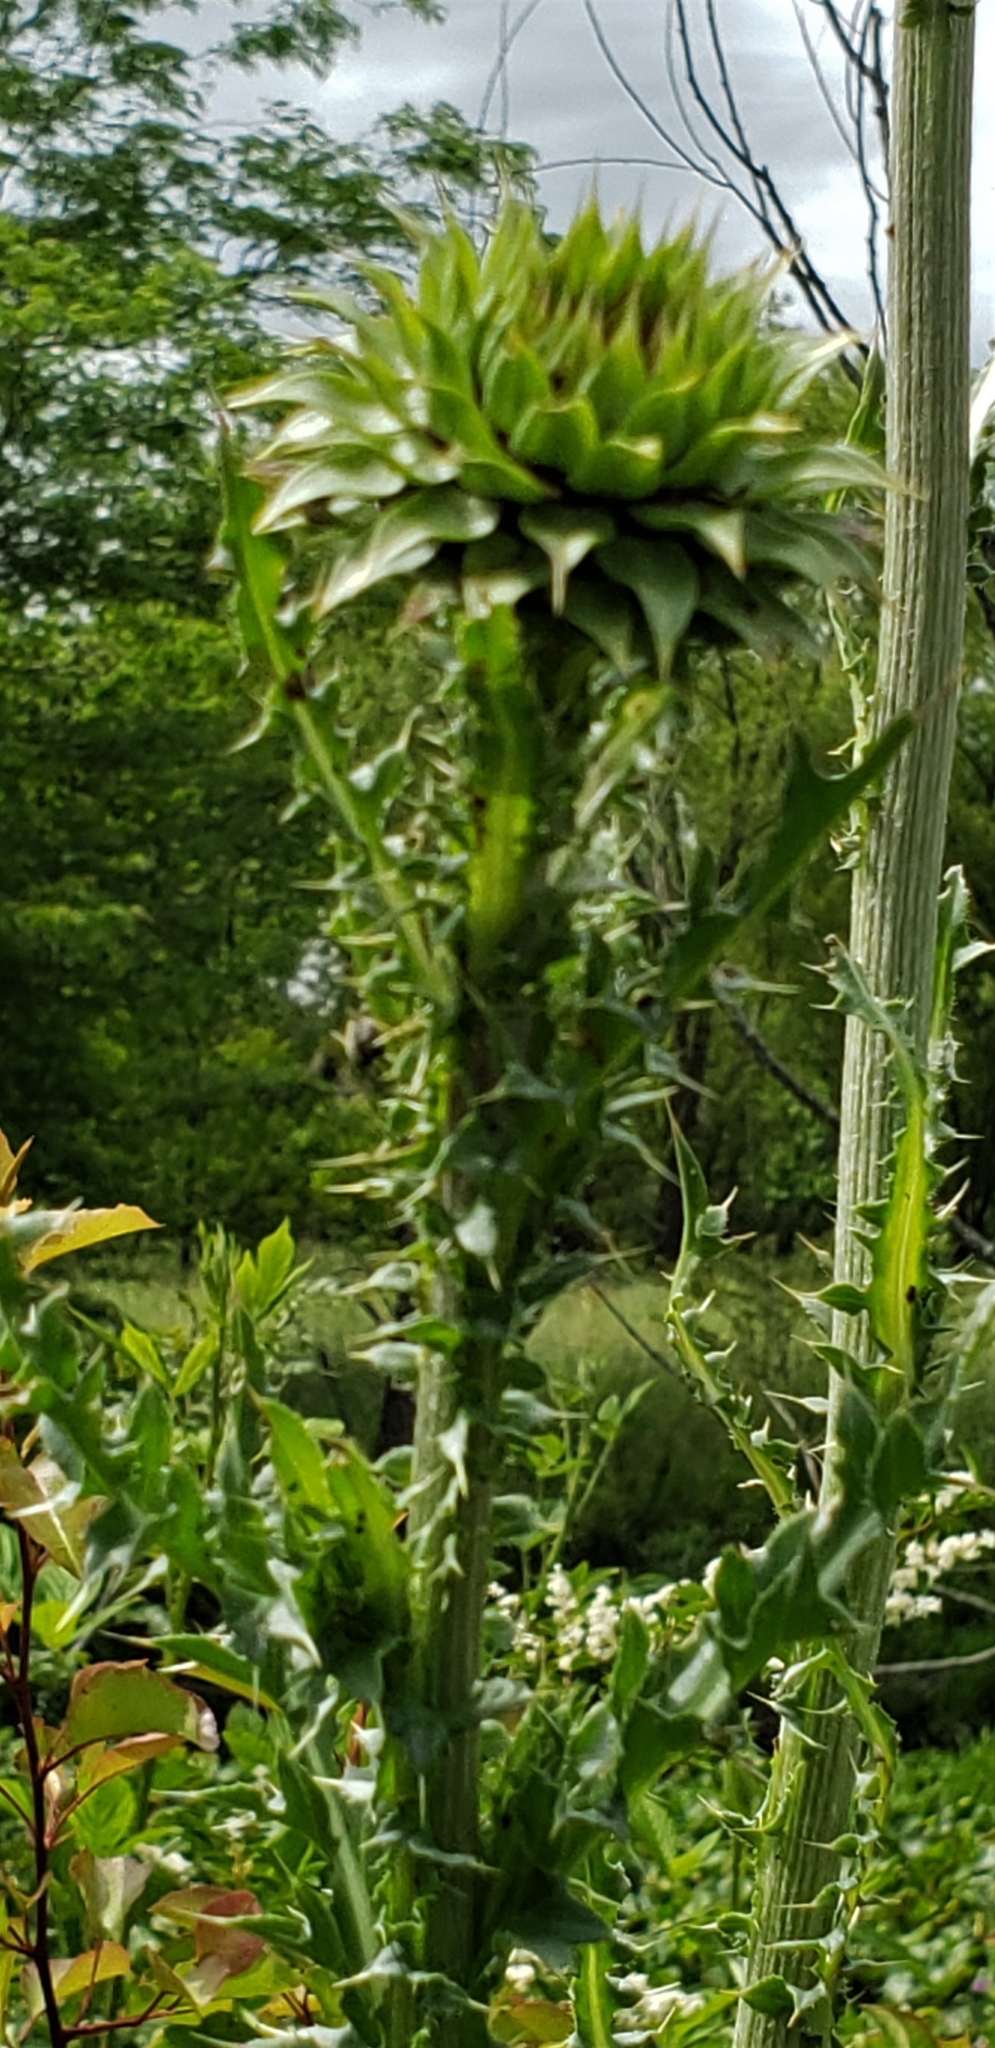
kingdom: Plantae
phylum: Tracheophyta
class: Magnoliopsida
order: Asterales
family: Asteraceae
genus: Carduus
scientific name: Carduus nutans
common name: Musk thistle
